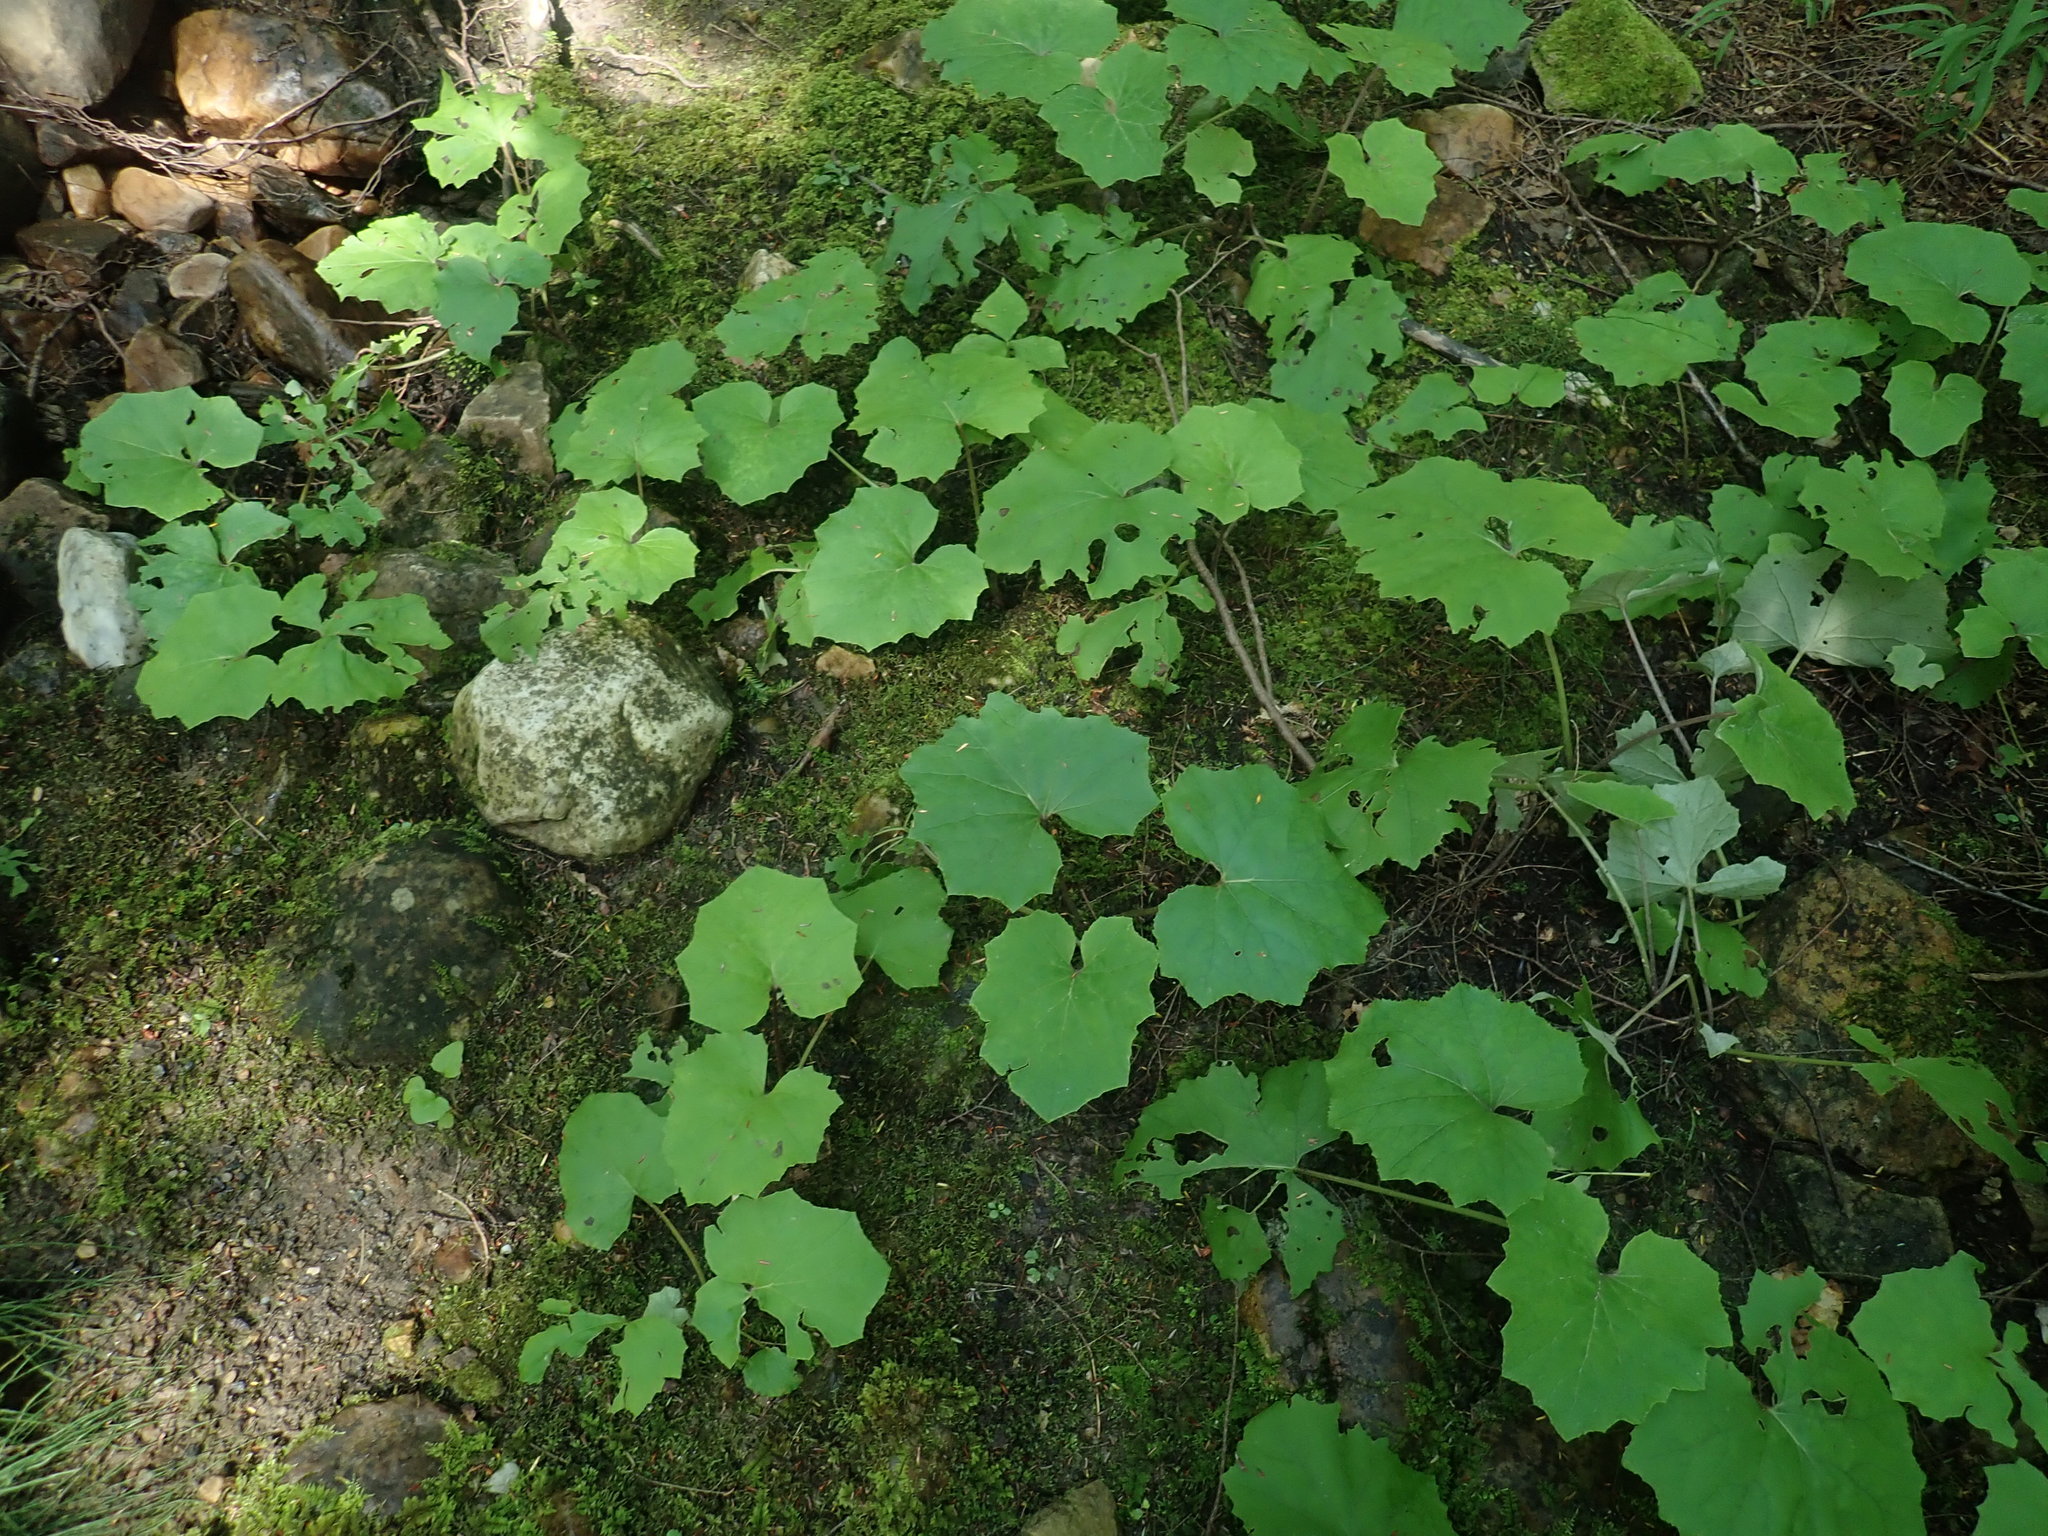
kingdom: Plantae
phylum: Tracheophyta
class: Magnoliopsida
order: Asterales
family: Asteraceae
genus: Tussilago
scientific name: Tussilago farfara
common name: Coltsfoot
